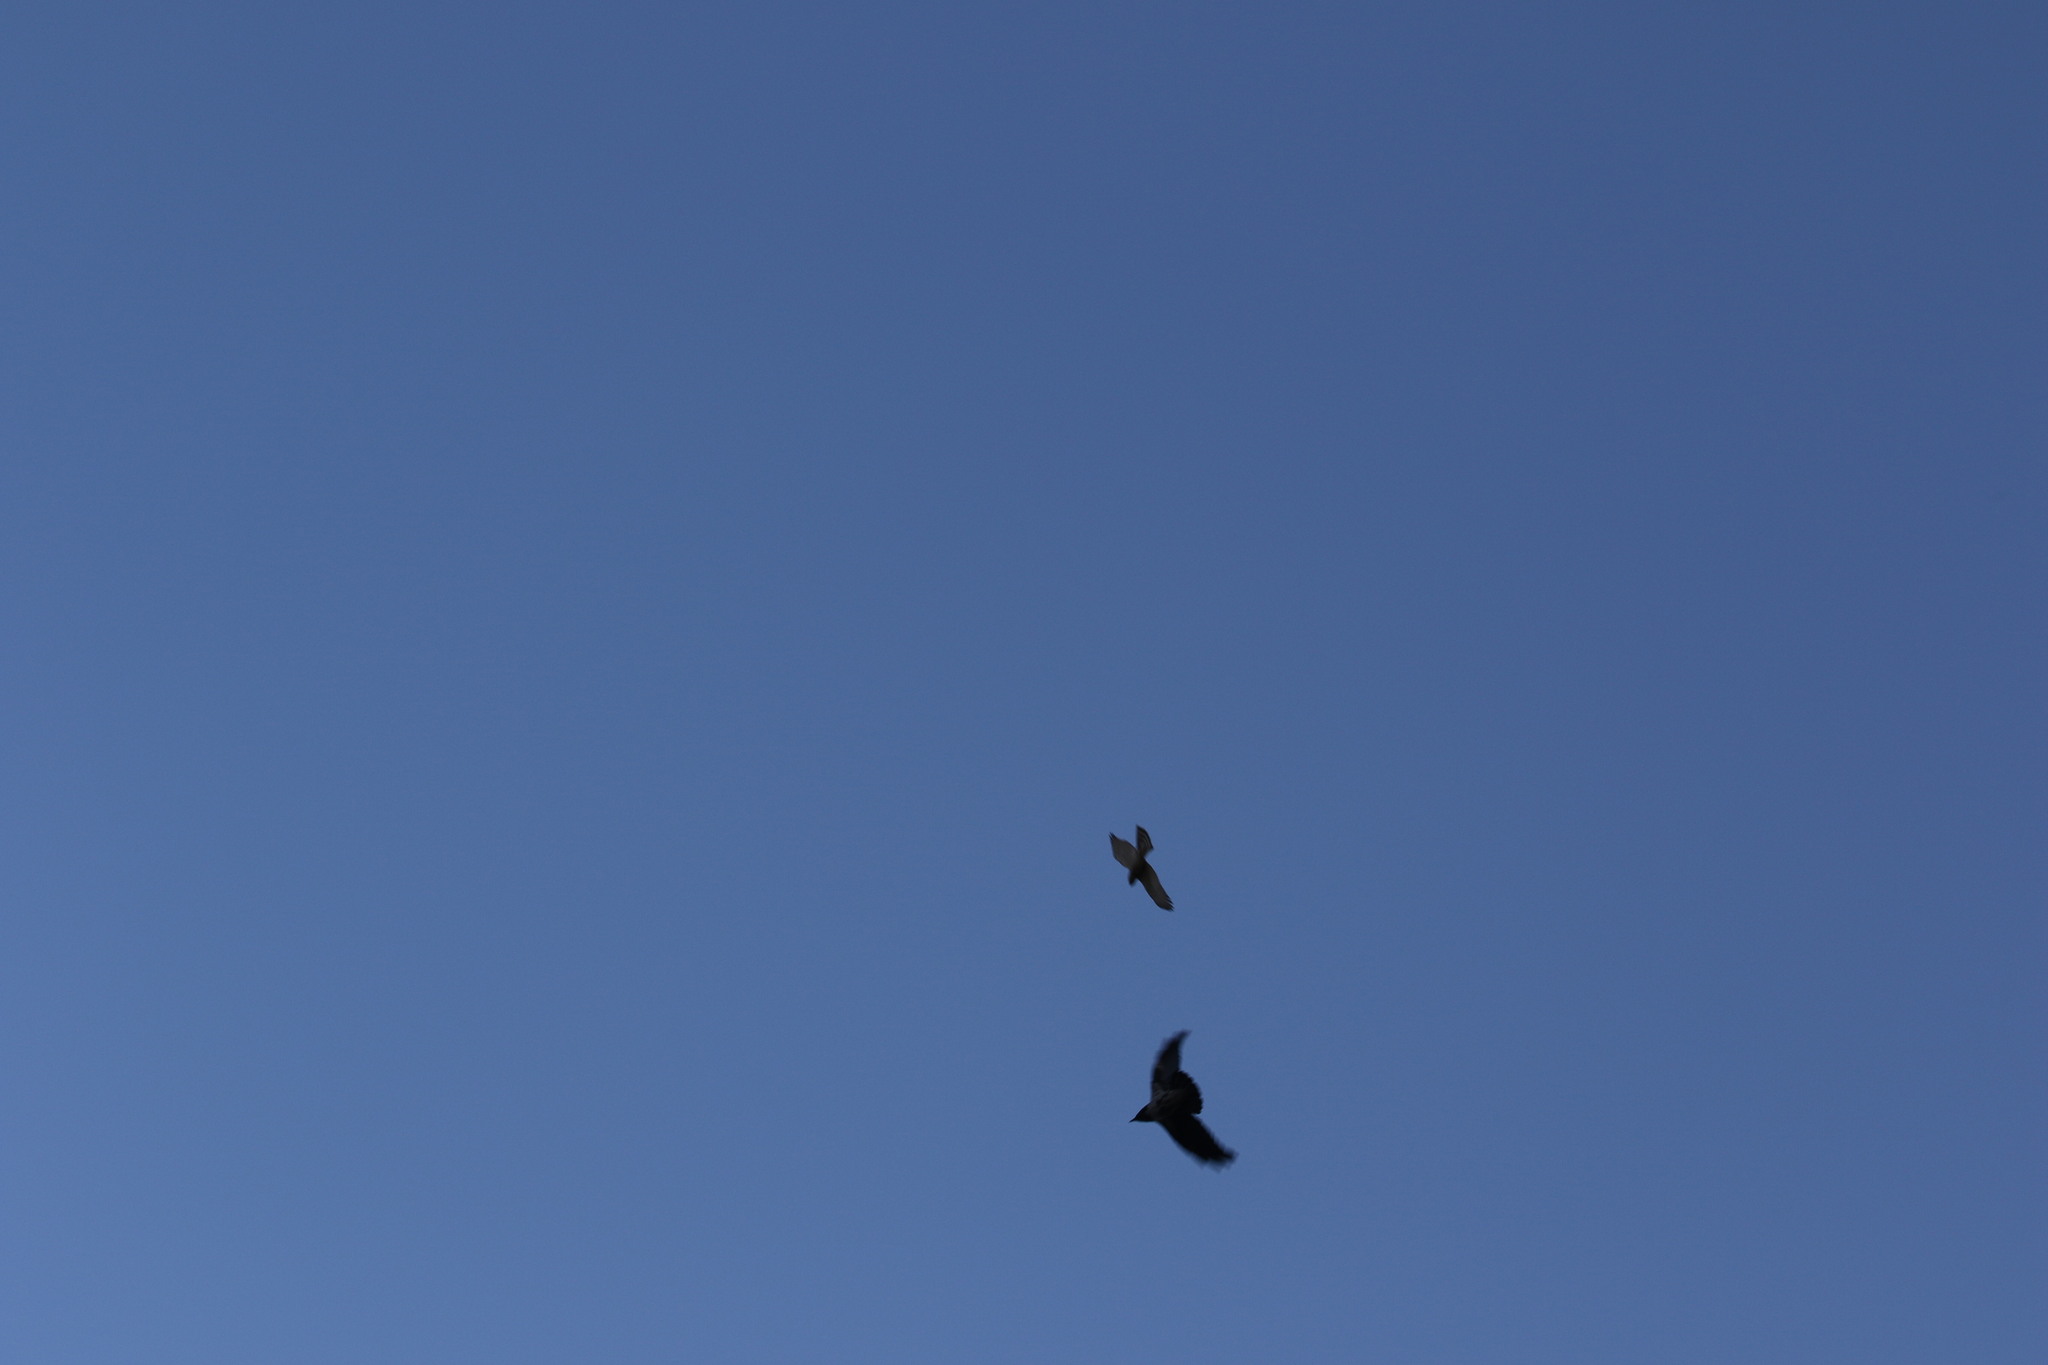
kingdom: Animalia
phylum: Chordata
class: Aves
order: Accipitriformes
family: Accipitridae
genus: Accipiter
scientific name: Accipiter nisus
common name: Eurasian sparrowhawk
